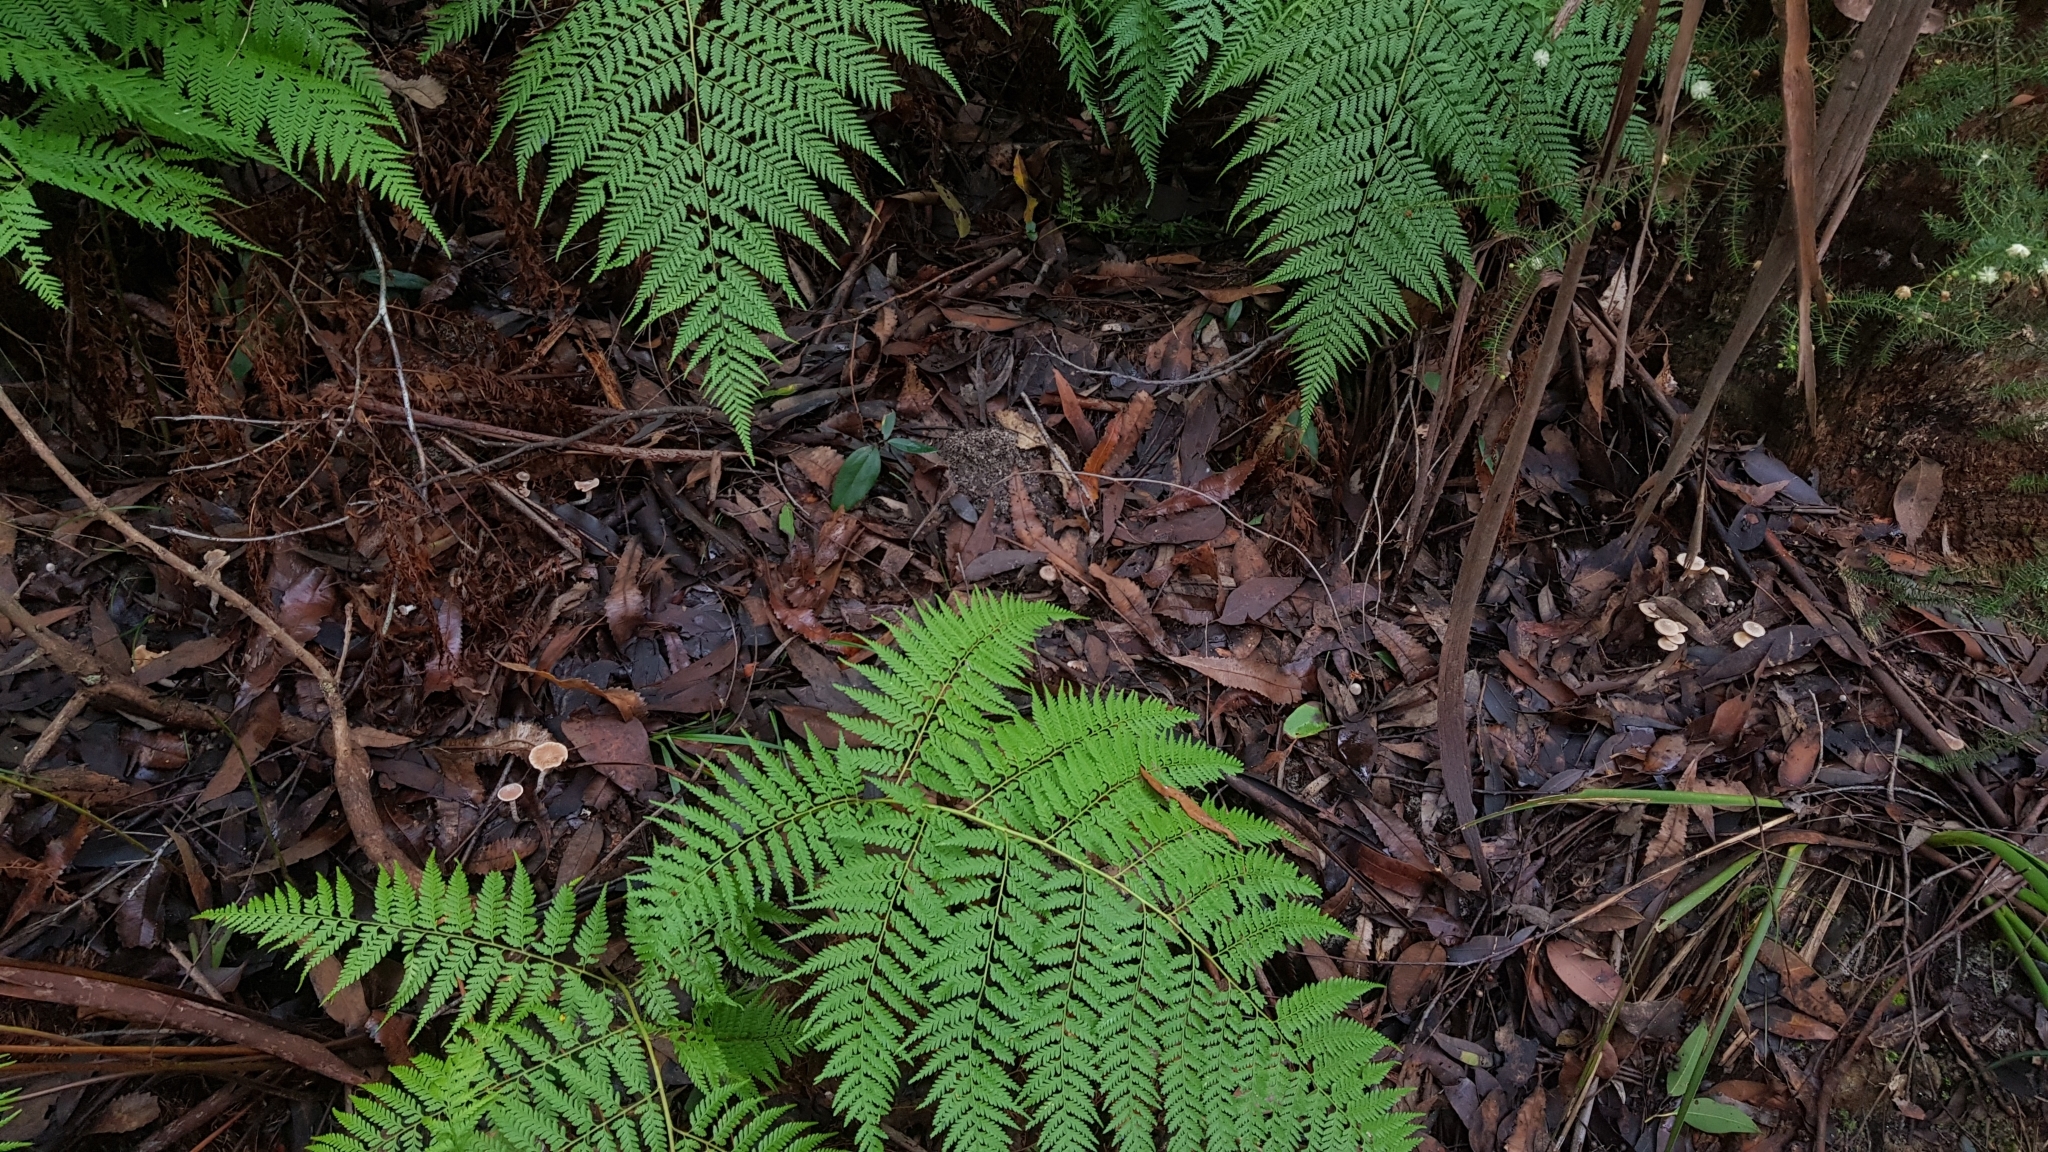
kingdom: Fungi
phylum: Basidiomycota
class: Agaricomycetes
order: Agaricales
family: Inocybaceae
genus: Inocybe
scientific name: Inocybe austrofibrillosa
